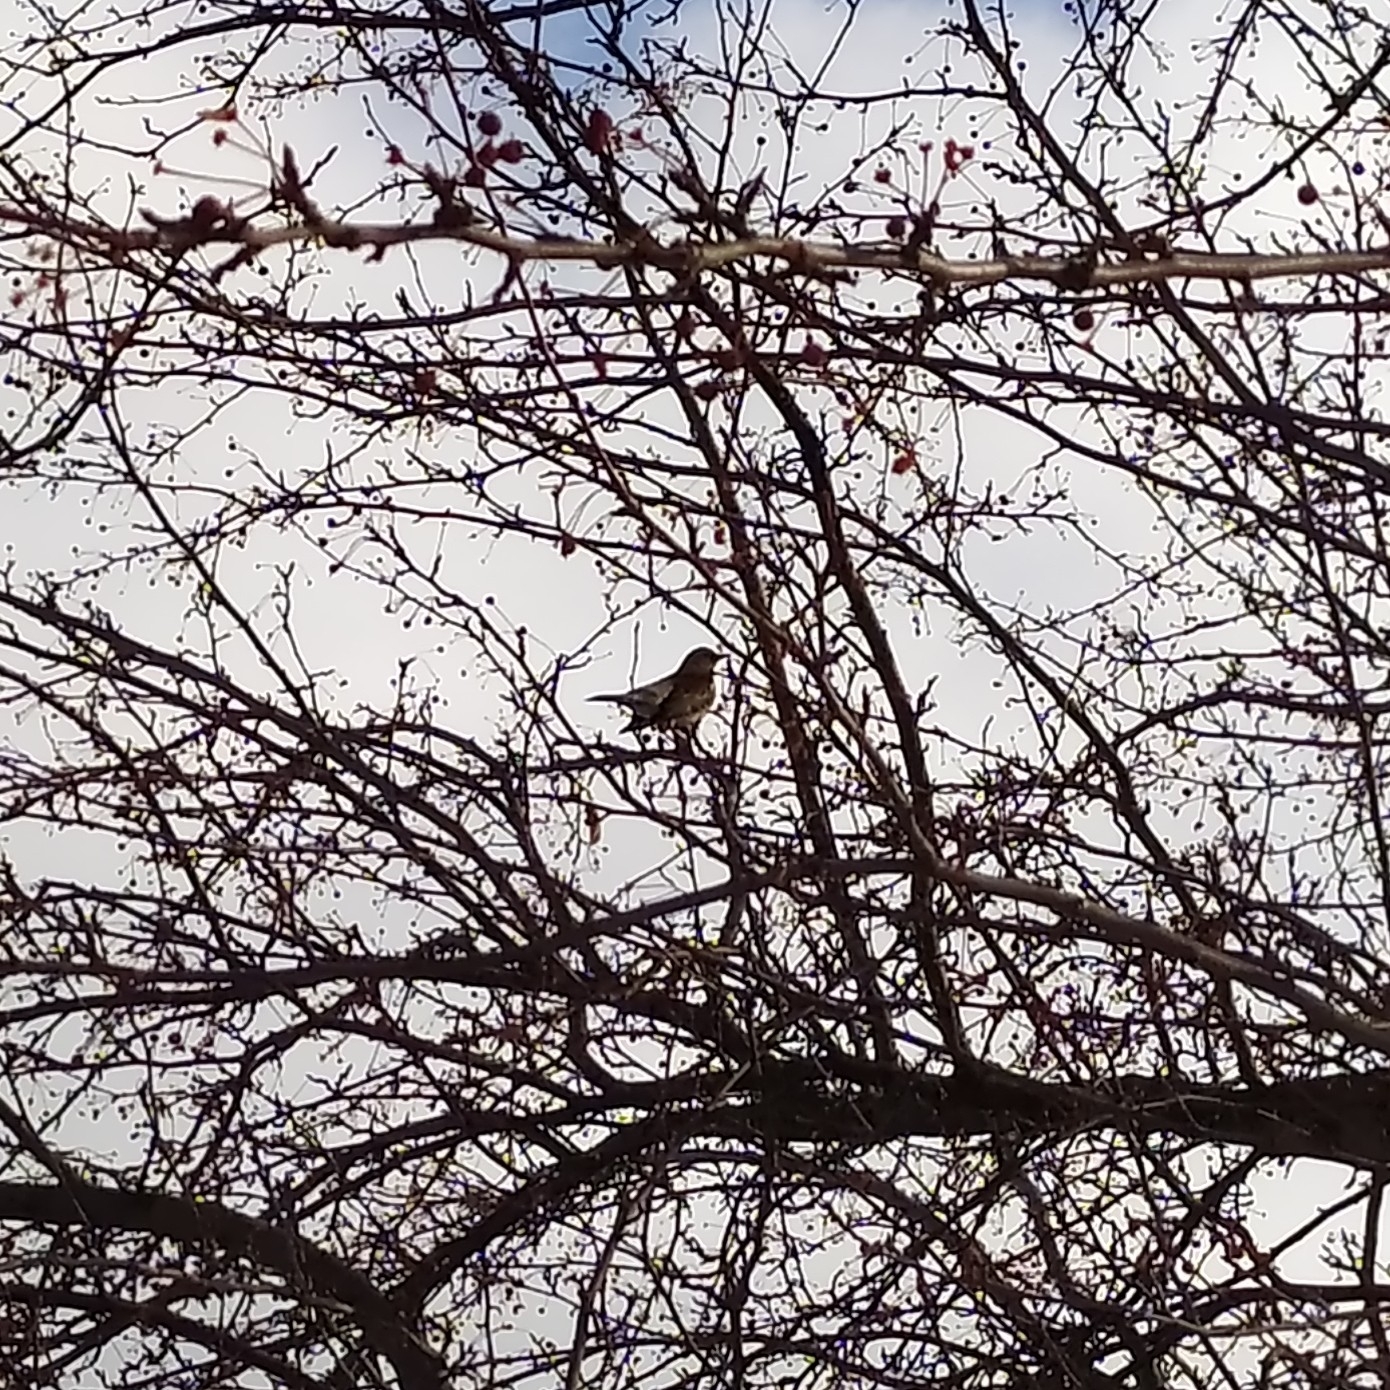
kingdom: Animalia
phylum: Chordata
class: Aves
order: Passeriformes
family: Turdidae
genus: Turdus
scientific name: Turdus pilaris
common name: Fieldfare
